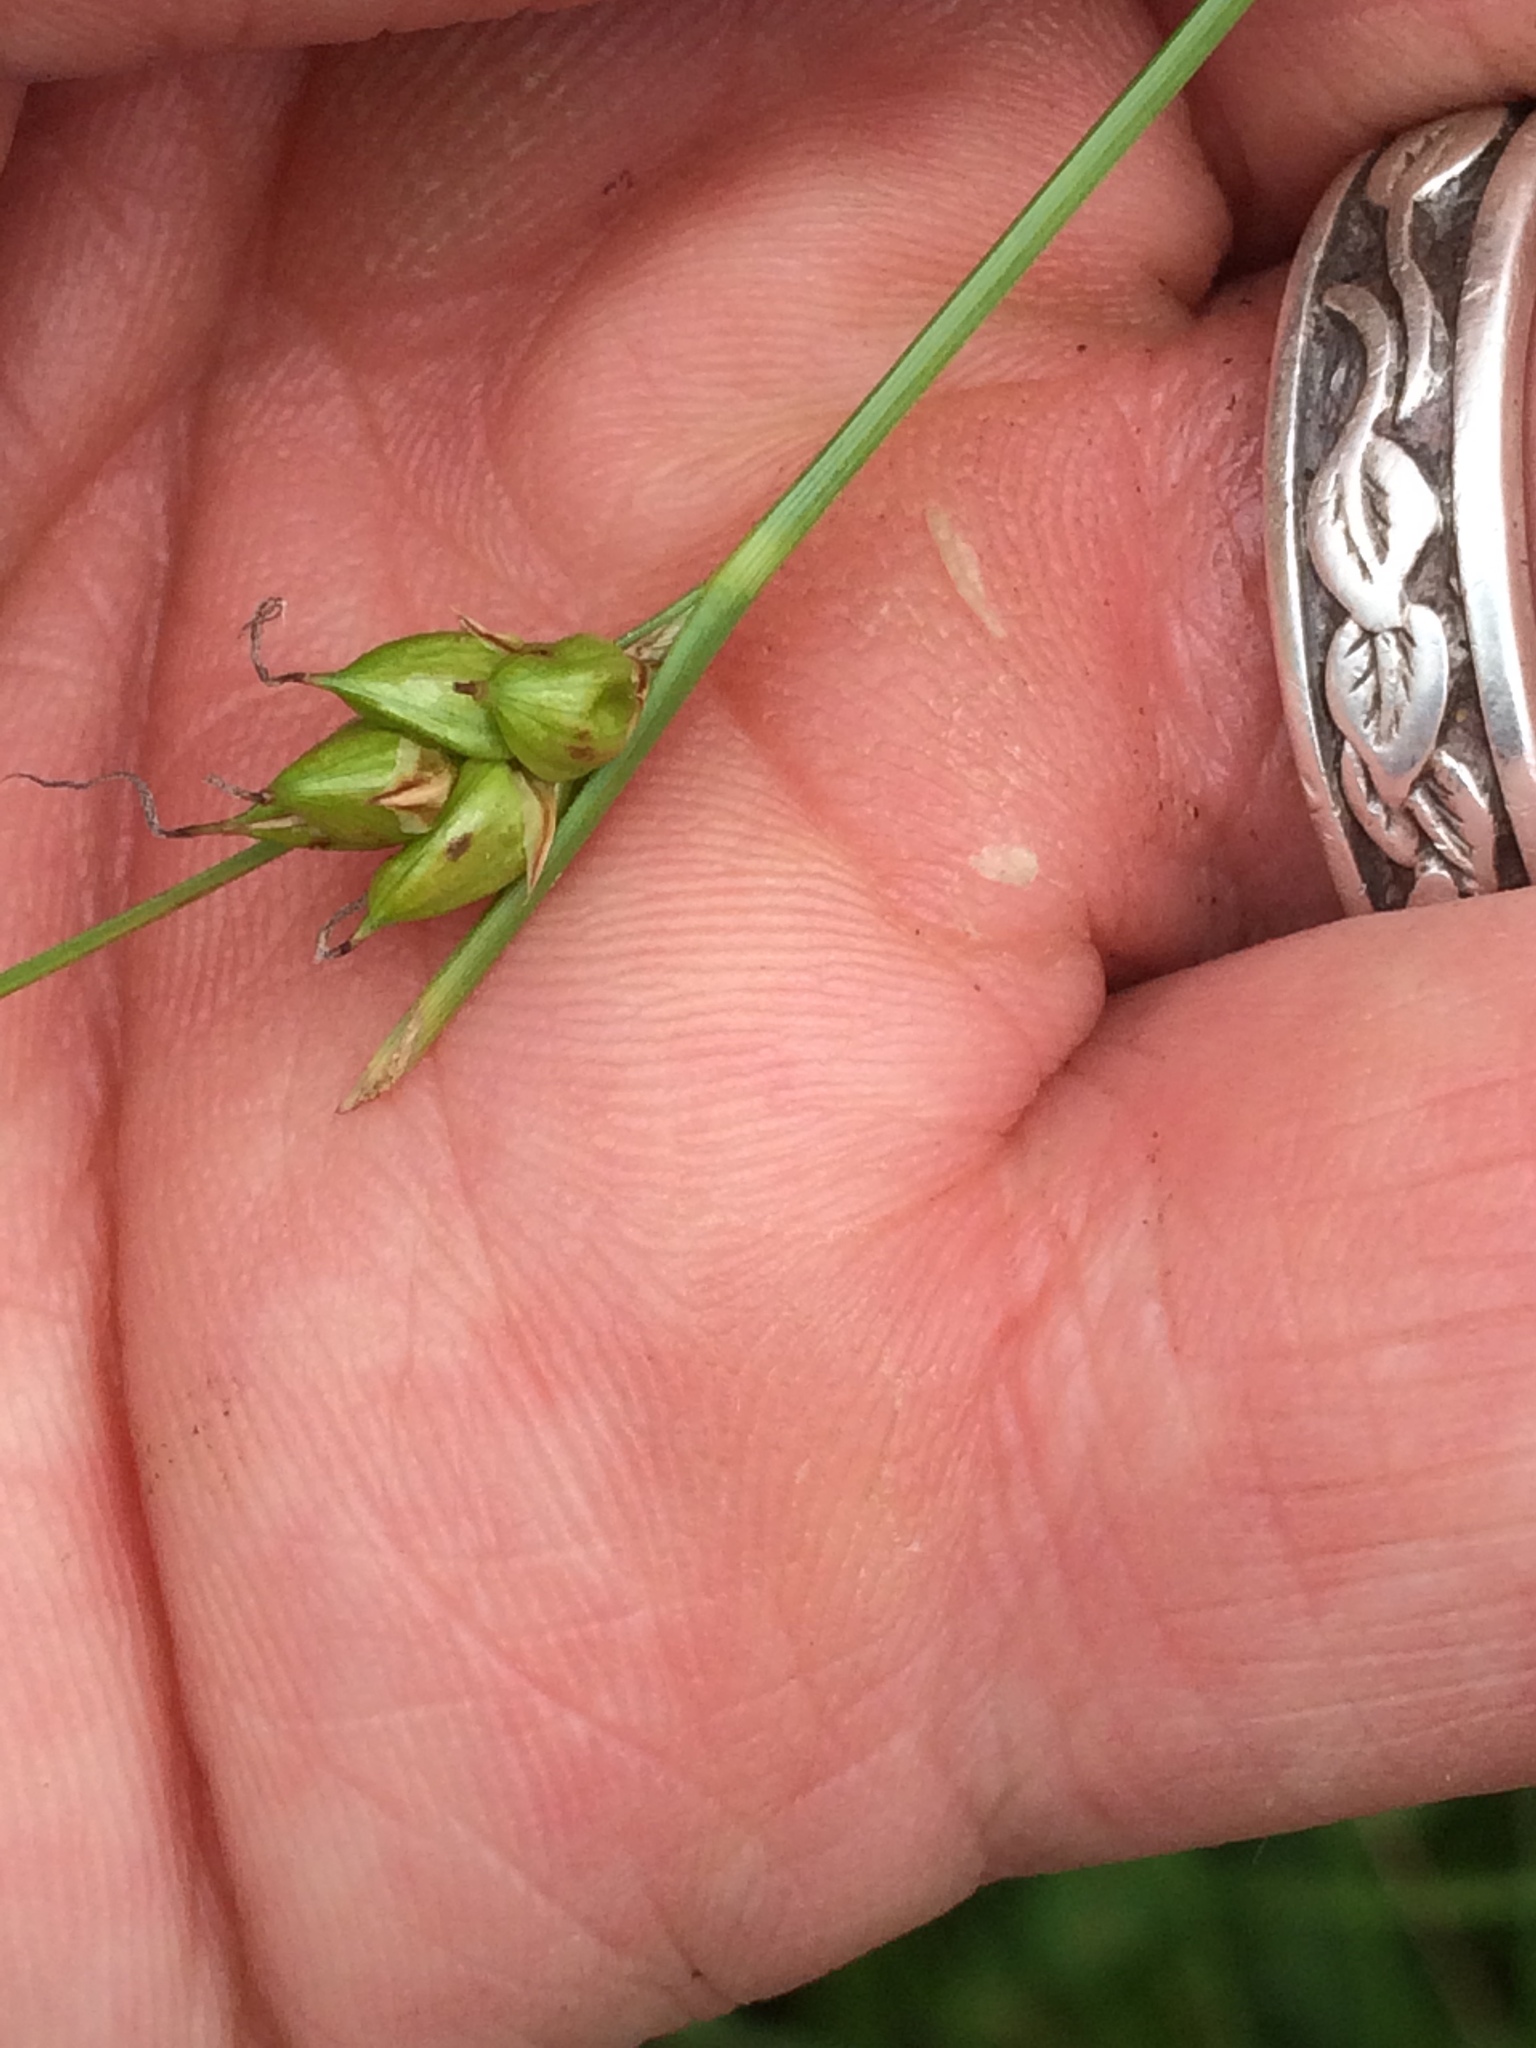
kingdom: Plantae
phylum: Tracheophyta
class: Liliopsida
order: Poales
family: Cyperaceae
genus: Carex
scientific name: Carex oligosperma
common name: Few-seed sedge
